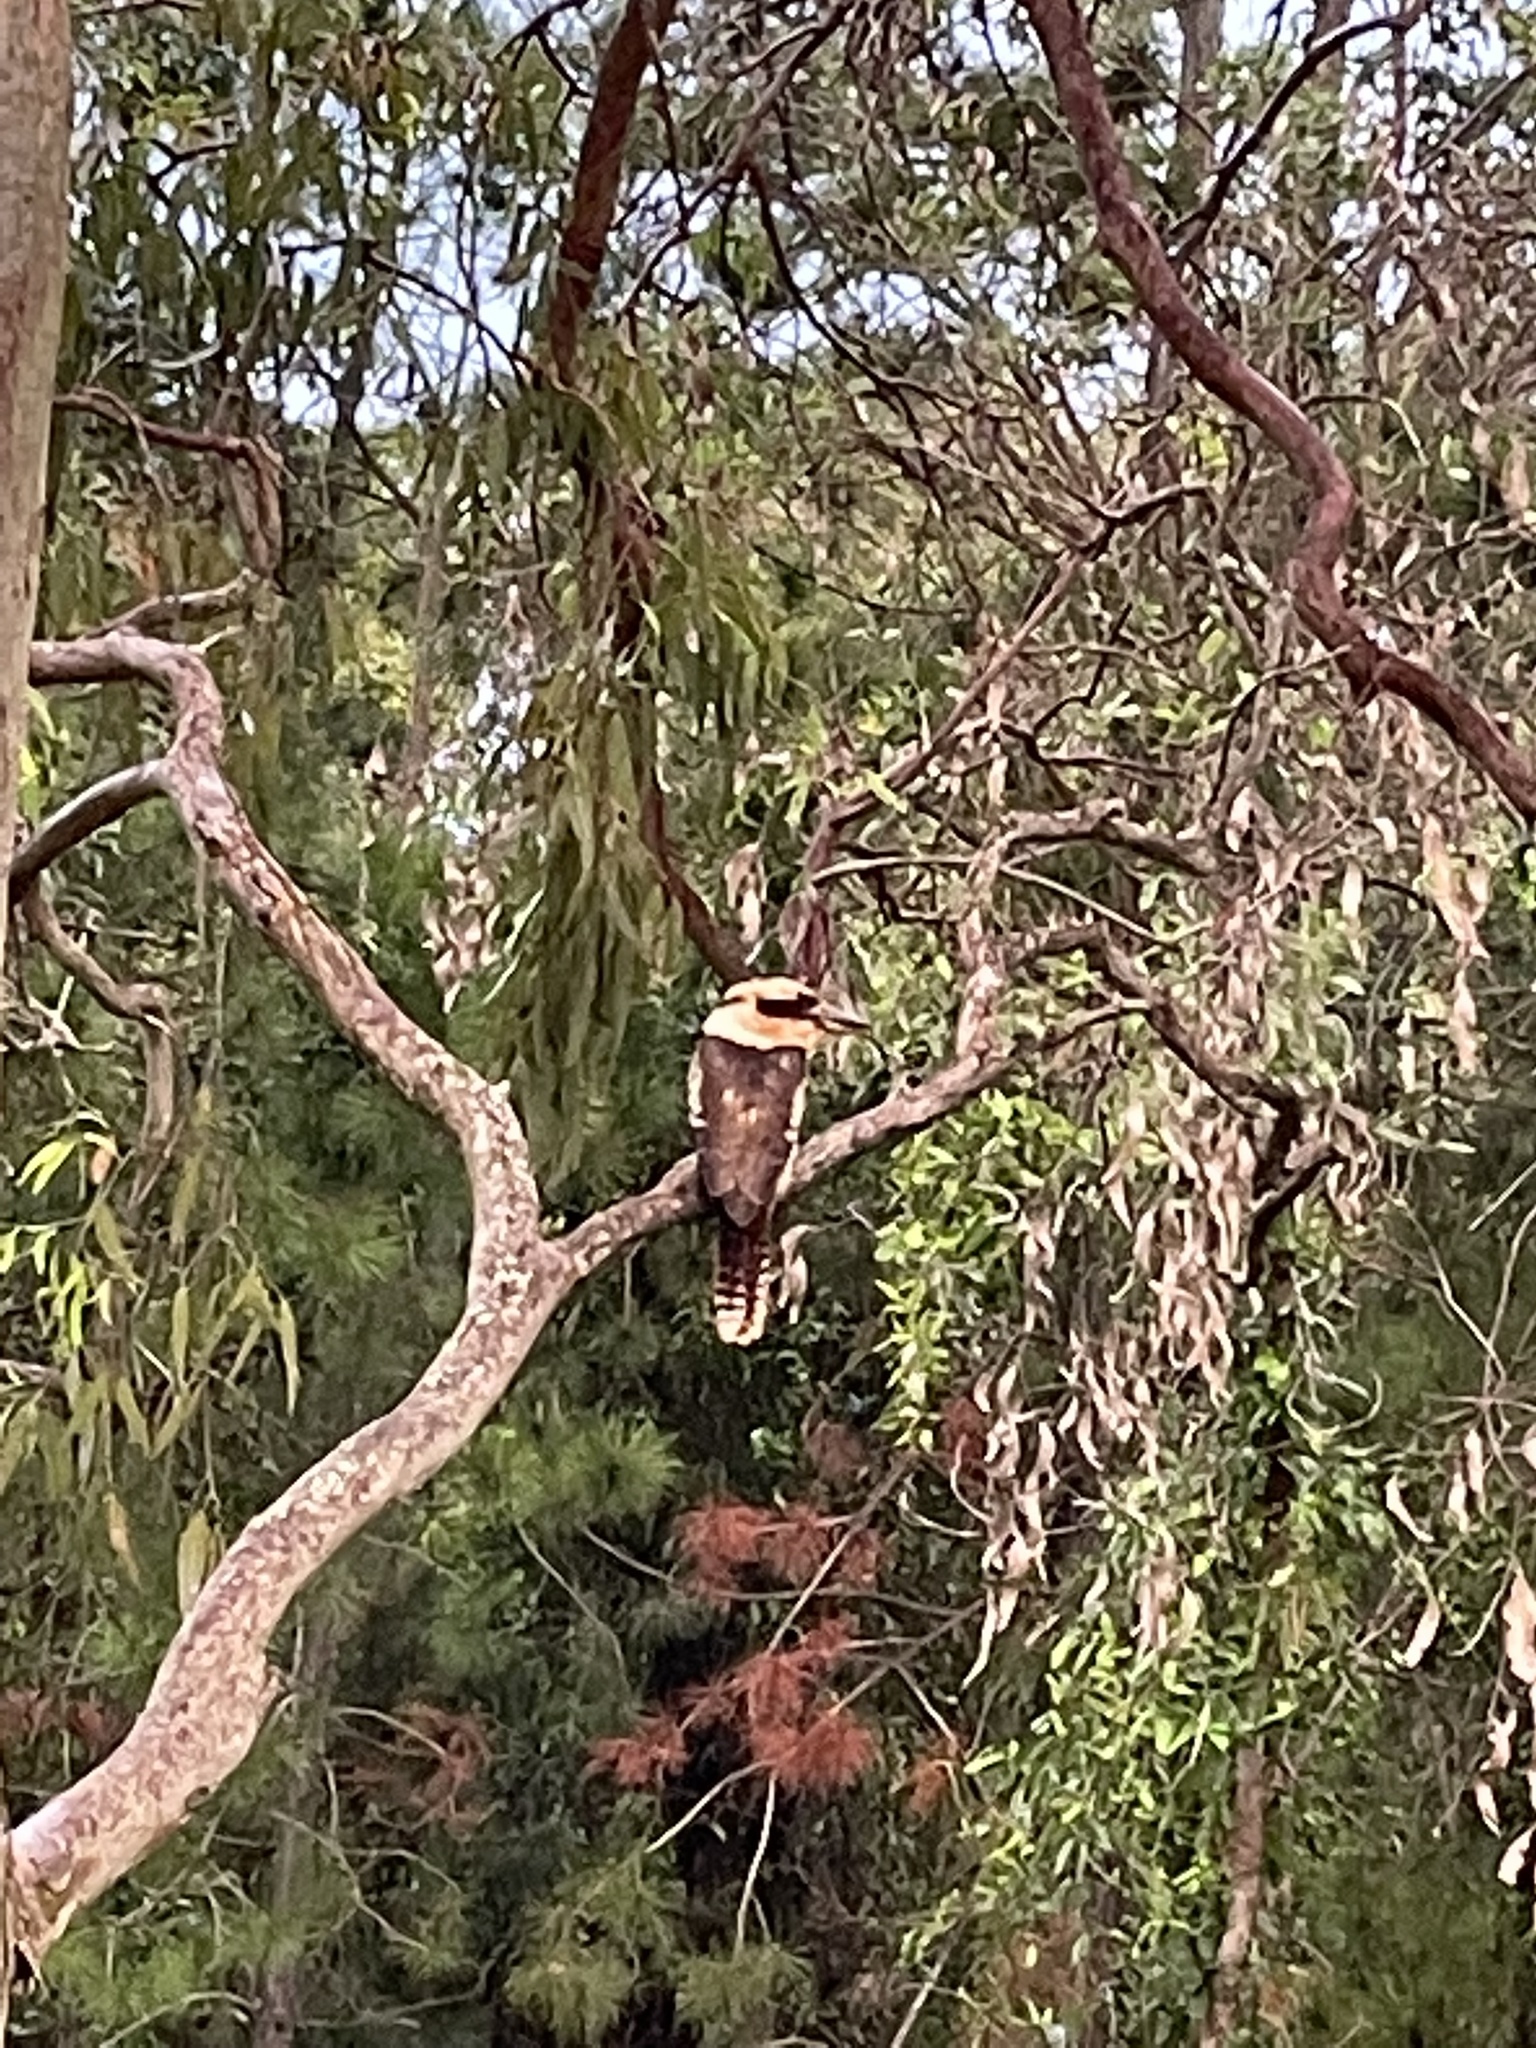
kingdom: Animalia
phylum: Chordata
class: Aves
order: Coraciiformes
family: Alcedinidae
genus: Dacelo
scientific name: Dacelo novaeguineae
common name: Laughing kookaburra
